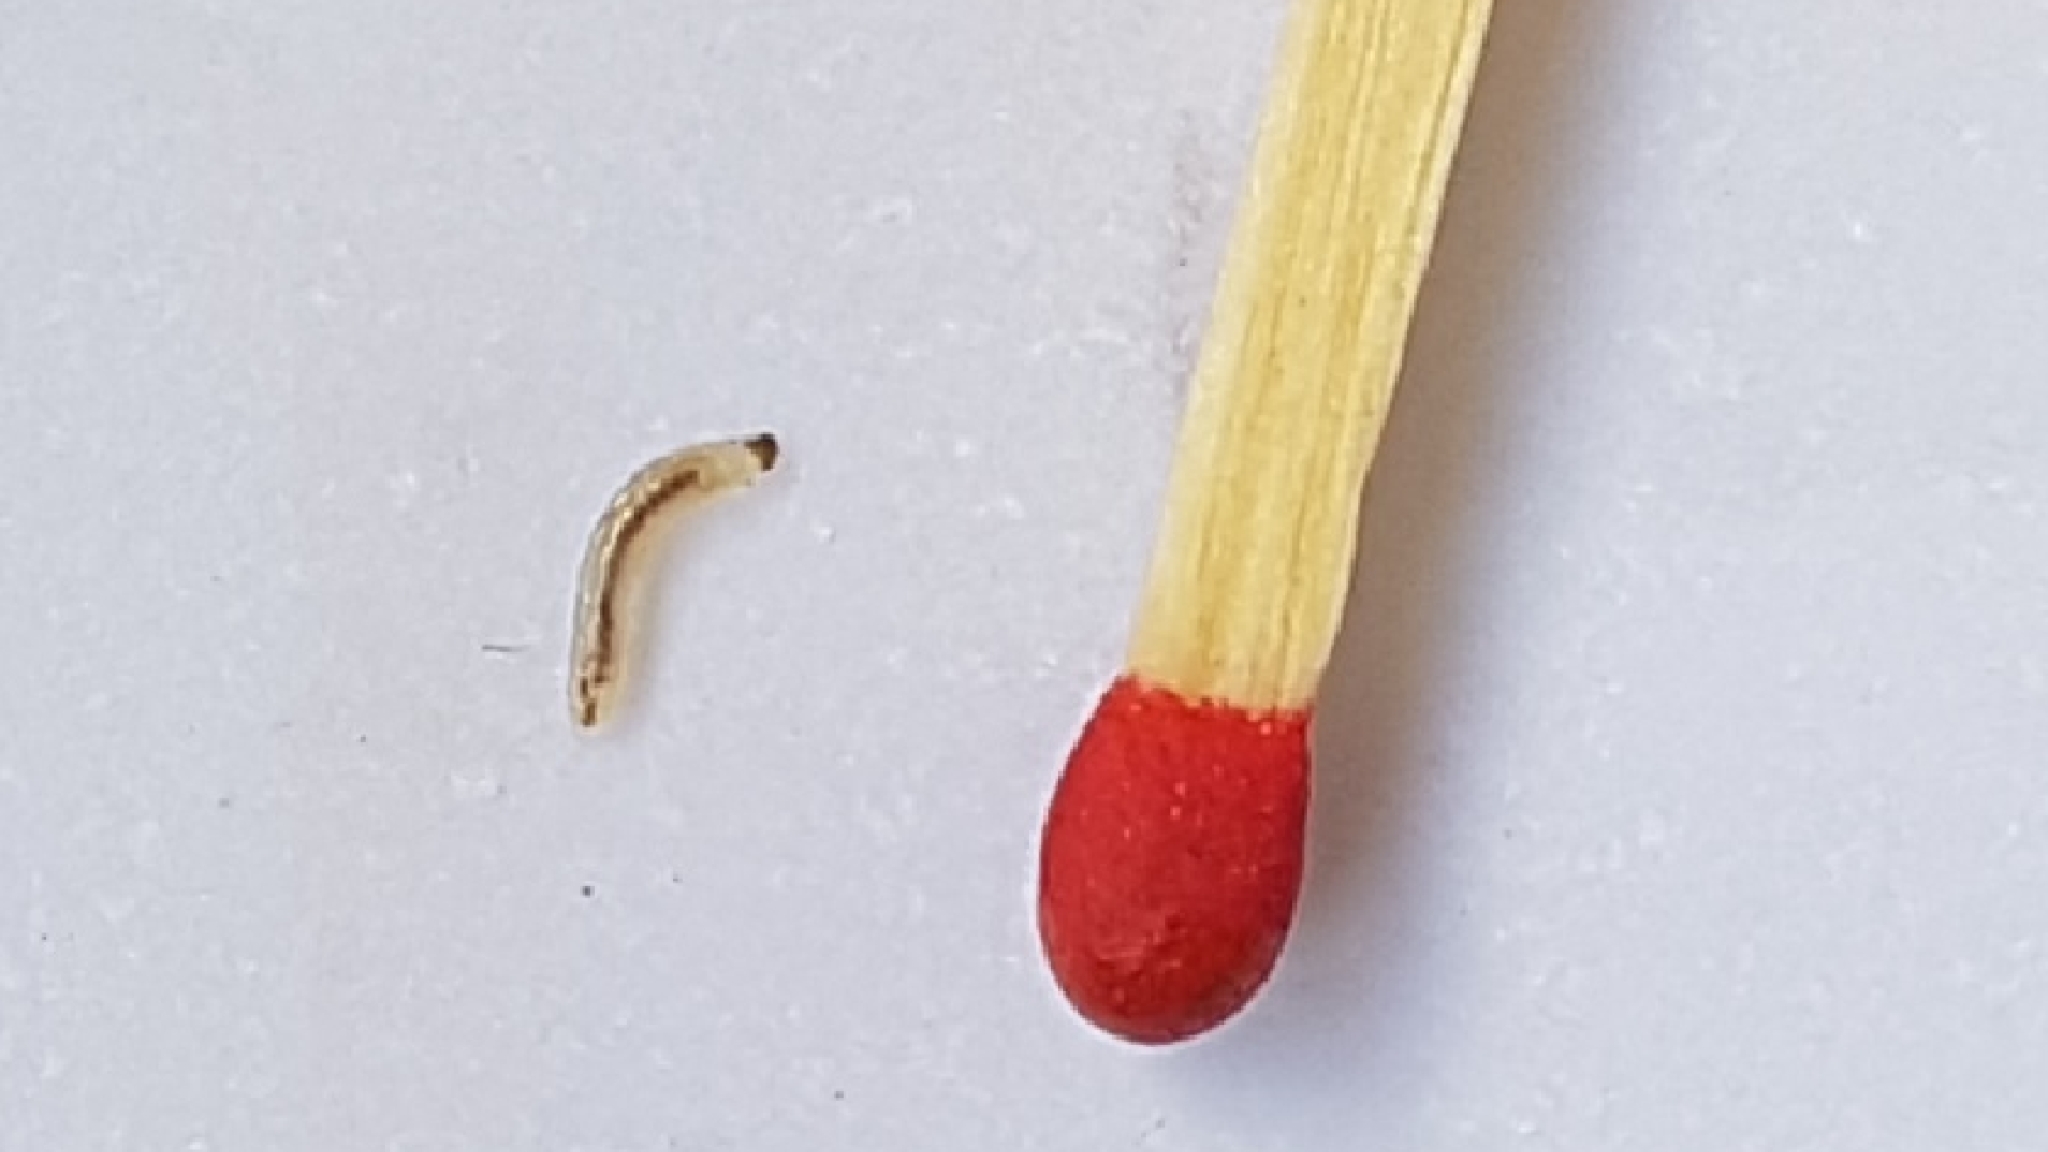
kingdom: Fungi
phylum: Basidiomycota
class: Agaricomycetes
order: Agaricales
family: Strophariaceae
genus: Leratiomyces
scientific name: Leratiomyces ceres
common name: Redlead roundhead
